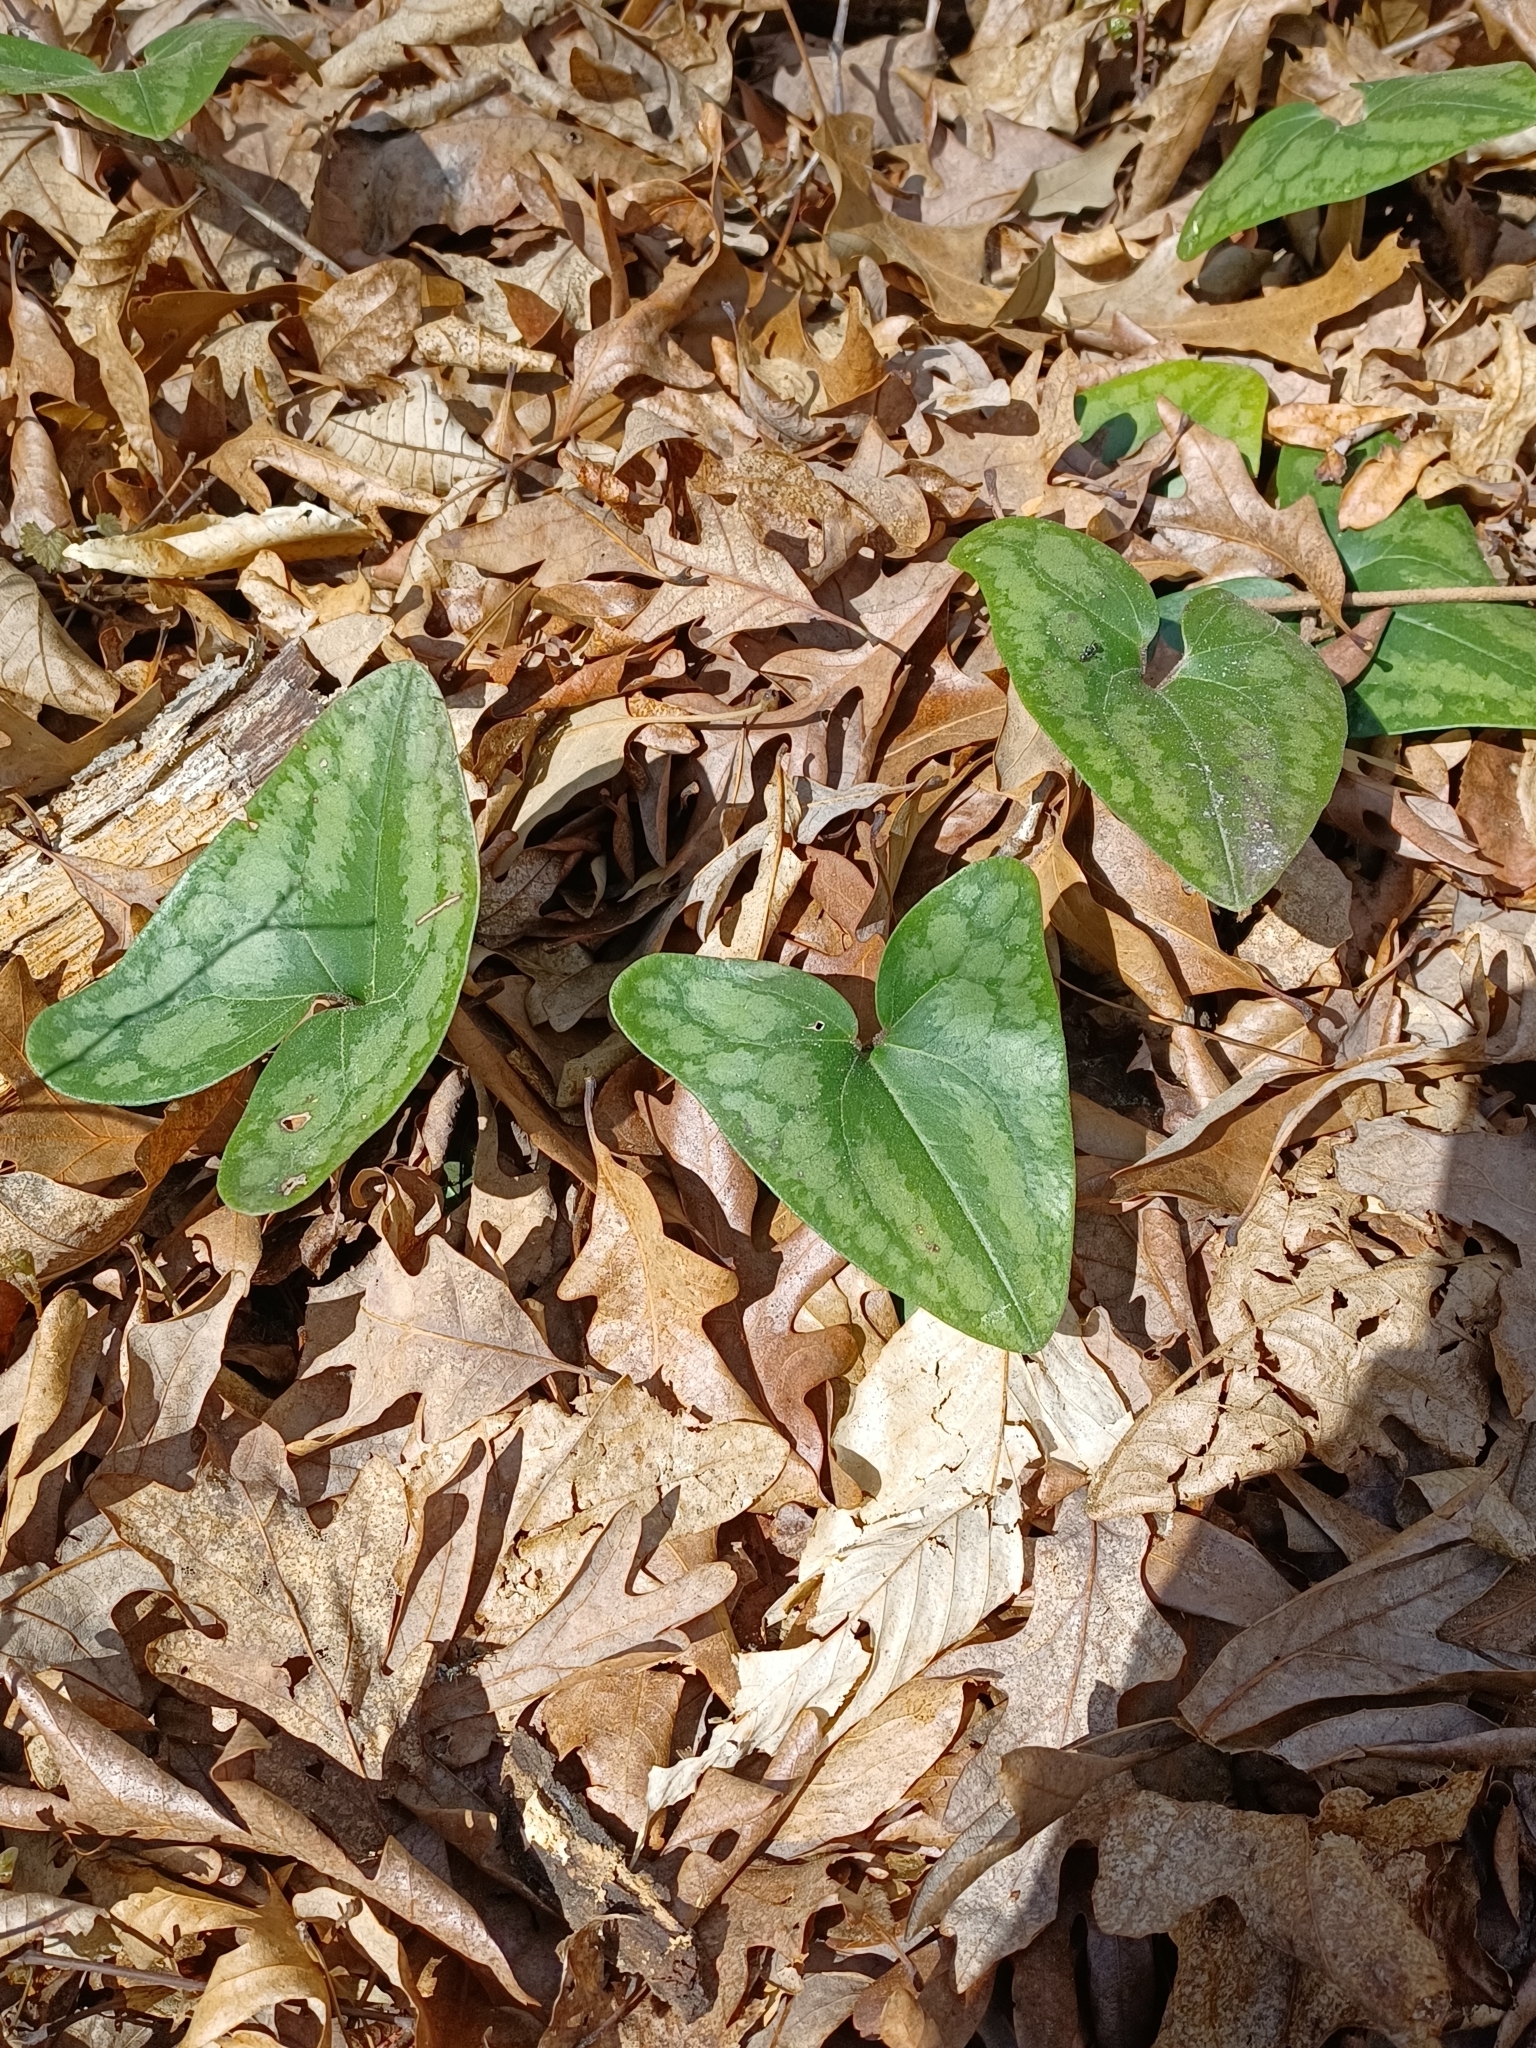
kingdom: Plantae
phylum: Tracheophyta
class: Magnoliopsida
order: Piperales
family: Aristolochiaceae
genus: Hexastylis
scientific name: Hexastylis arifolia
